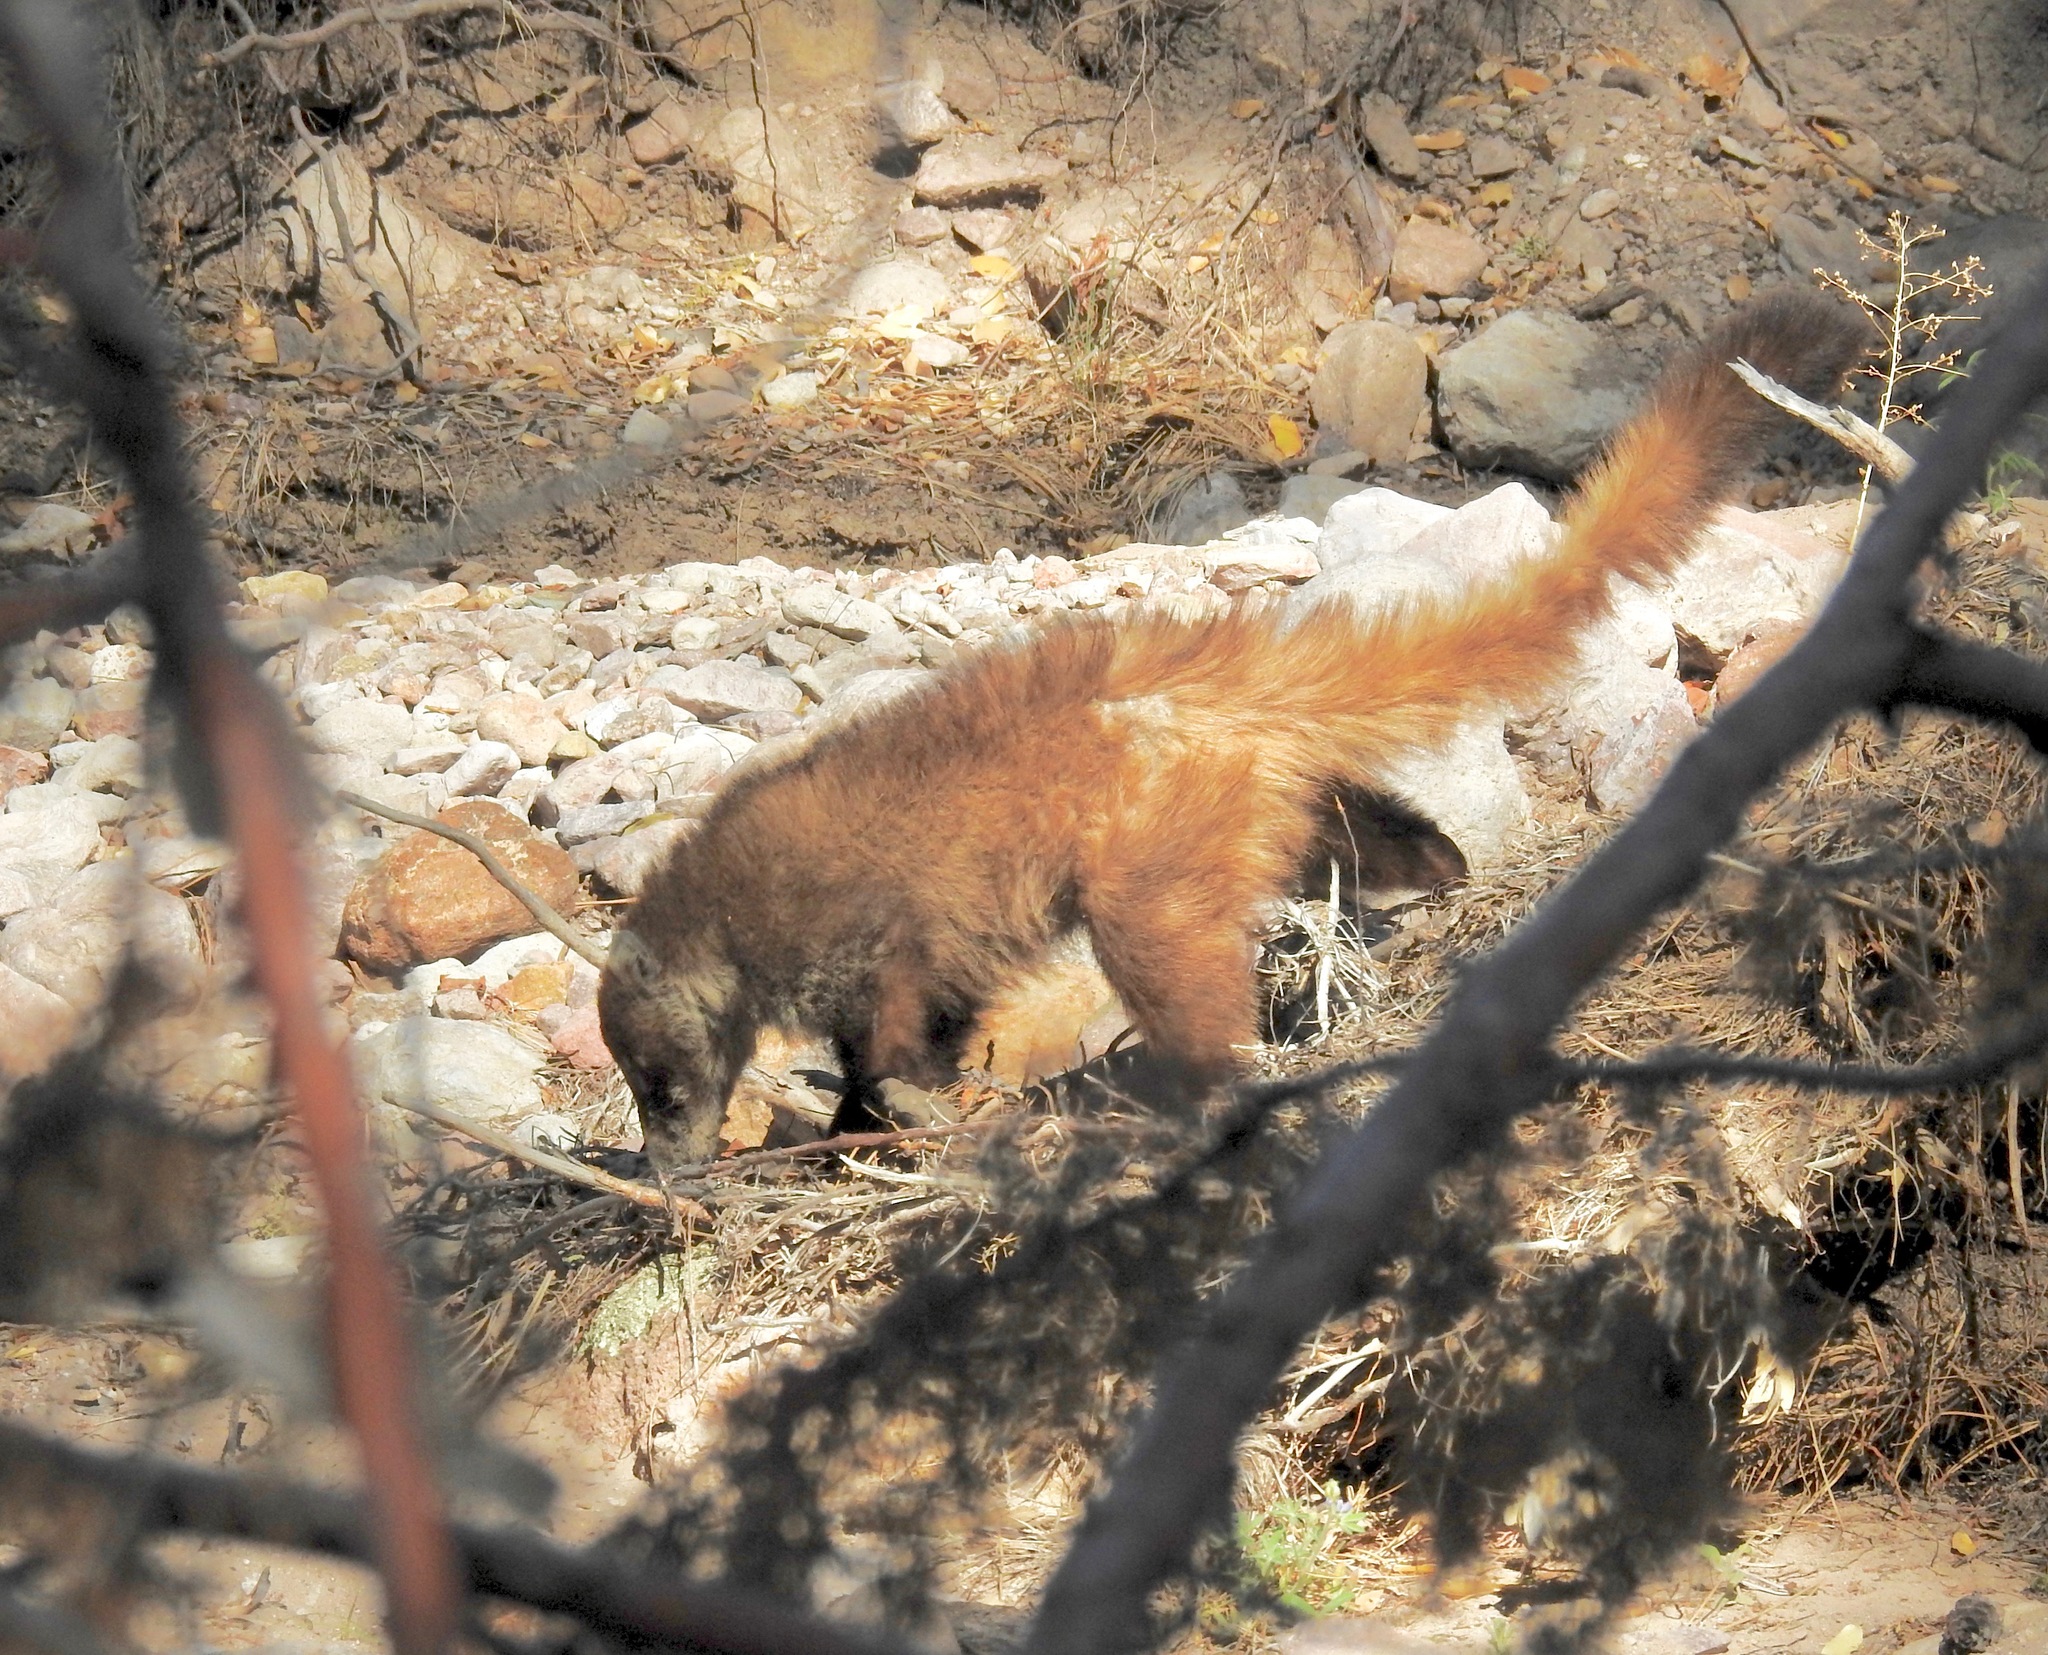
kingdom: Animalia
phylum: Chordata
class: Mammalia
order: Carnivora
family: Procyonidae
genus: Nasua
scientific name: Nasua narica
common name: White-nosed coati
